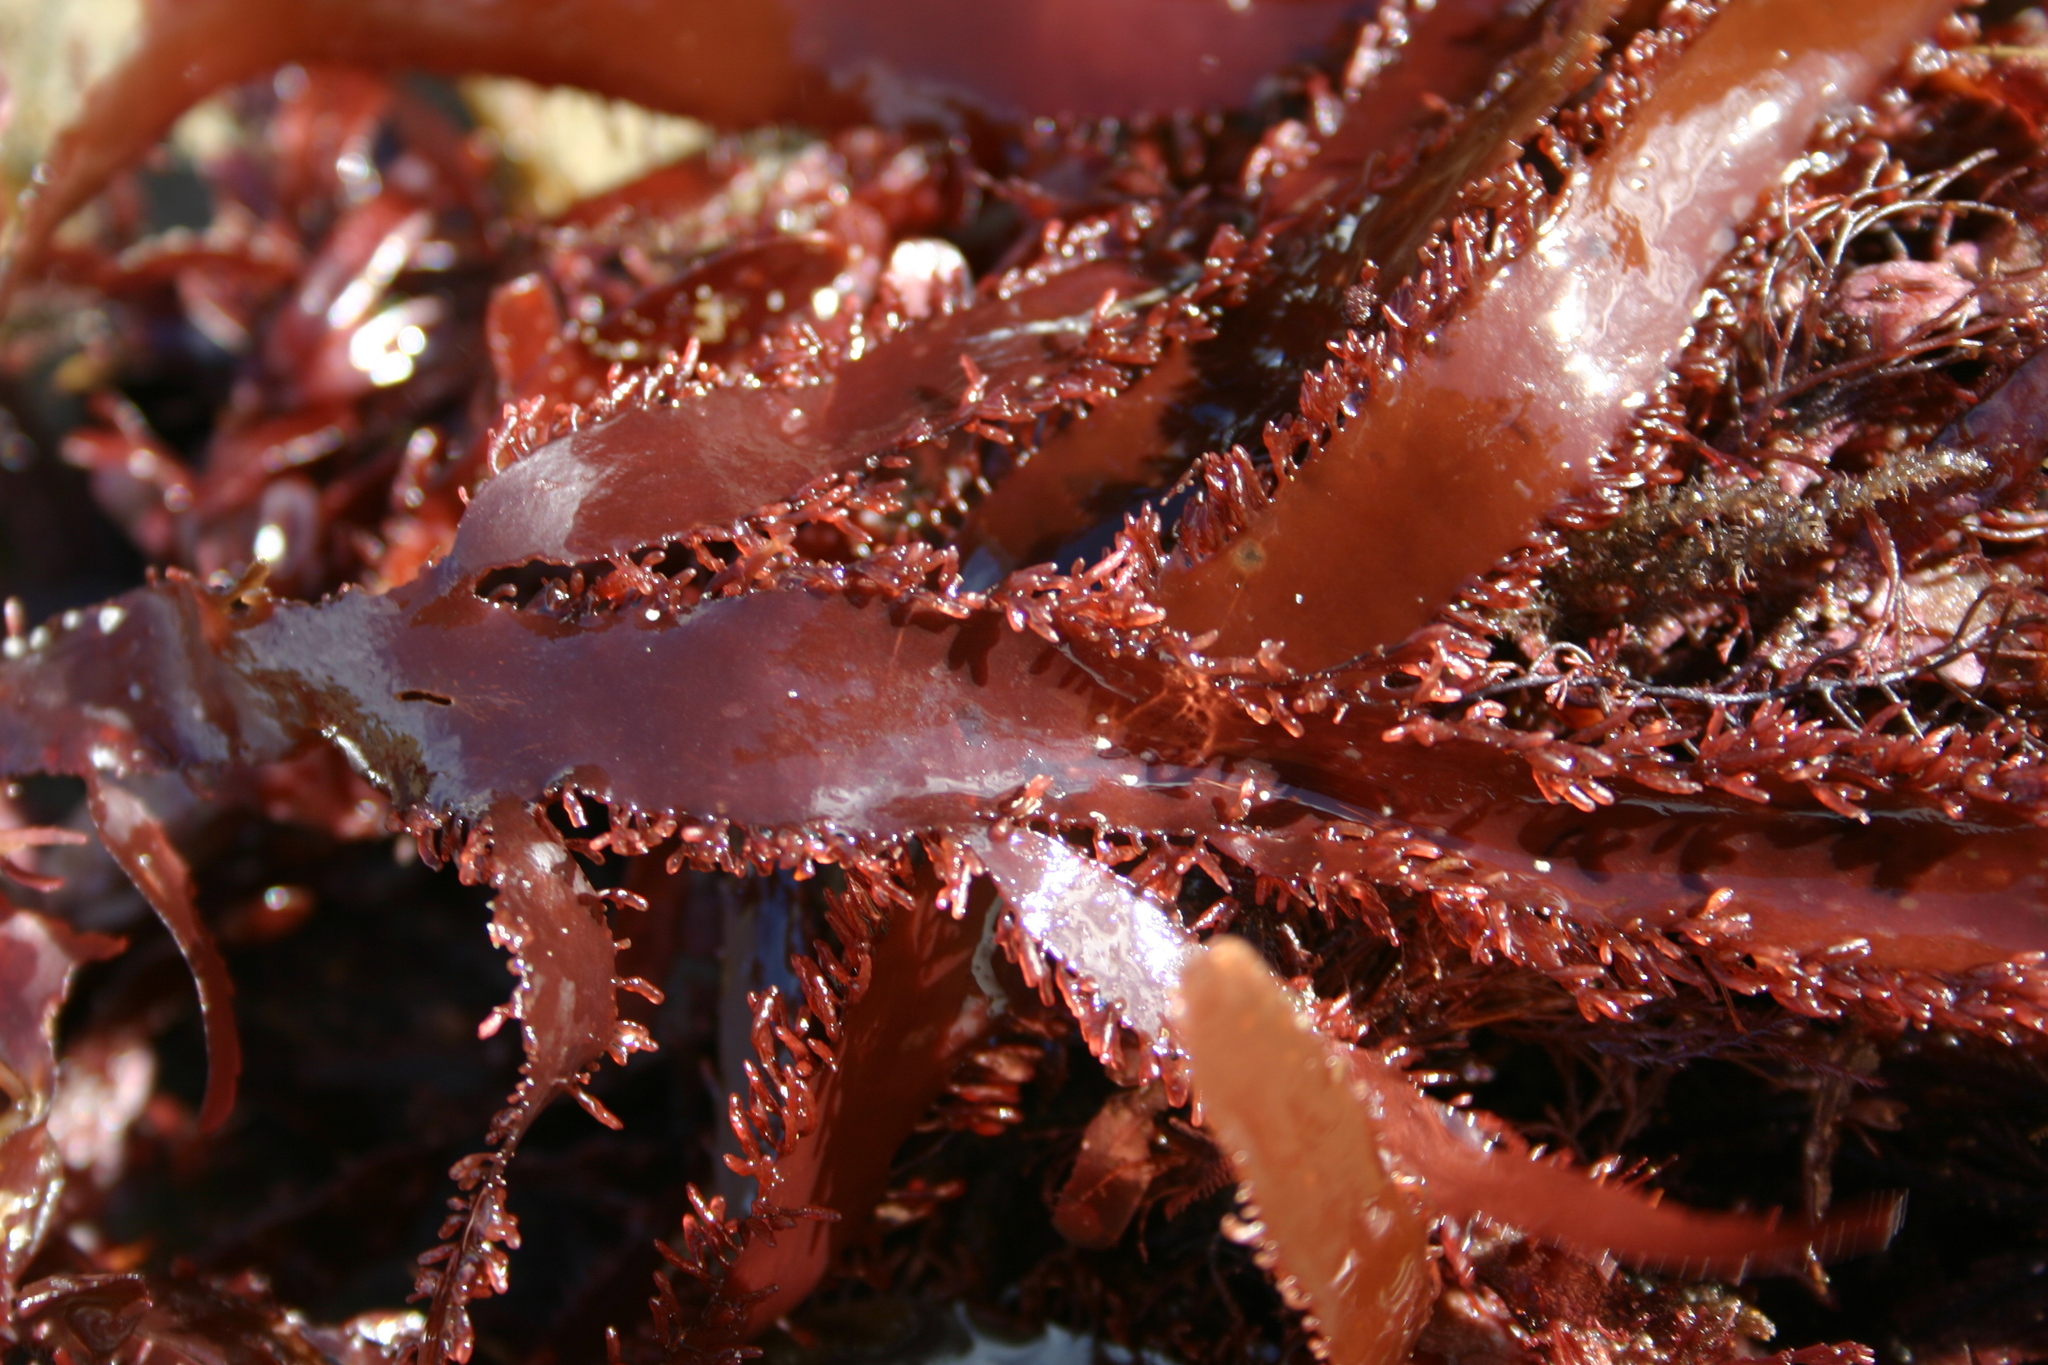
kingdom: Plantae
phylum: Rhodophyta
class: Florideophyceae
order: Ceramiales
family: Rhodomelaceae
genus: Cladhymenia
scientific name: Cladhymenia oblongifolia
